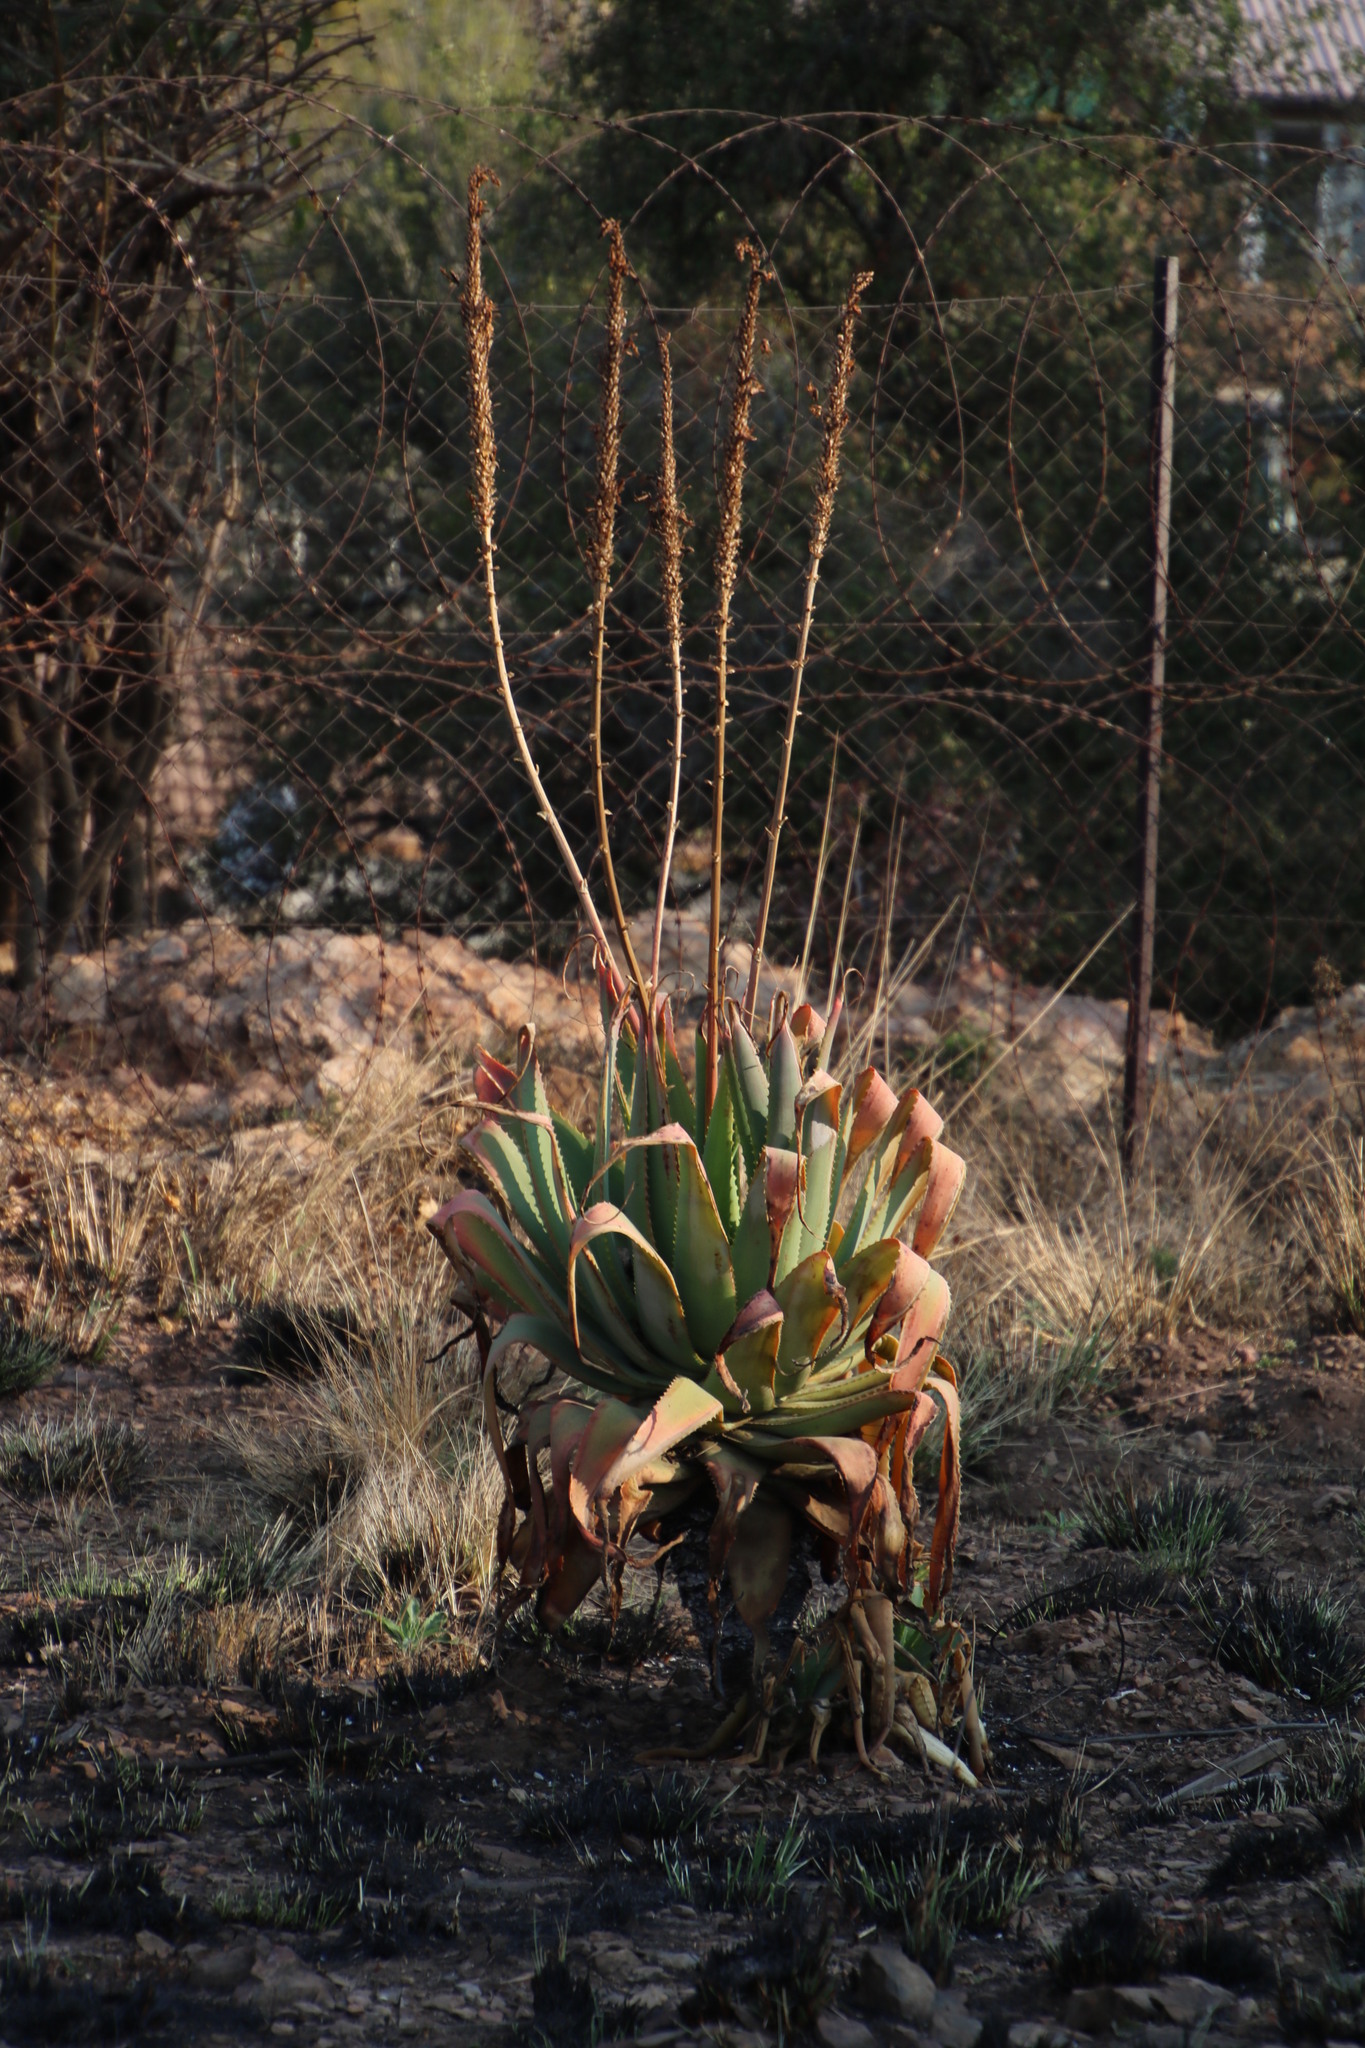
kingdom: Plantae
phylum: Tracheophyta
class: Liliopsida
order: Asparagales
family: Asphodelaceae
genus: Aloe
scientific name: Aloe arborescens
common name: Candelabra aloe
